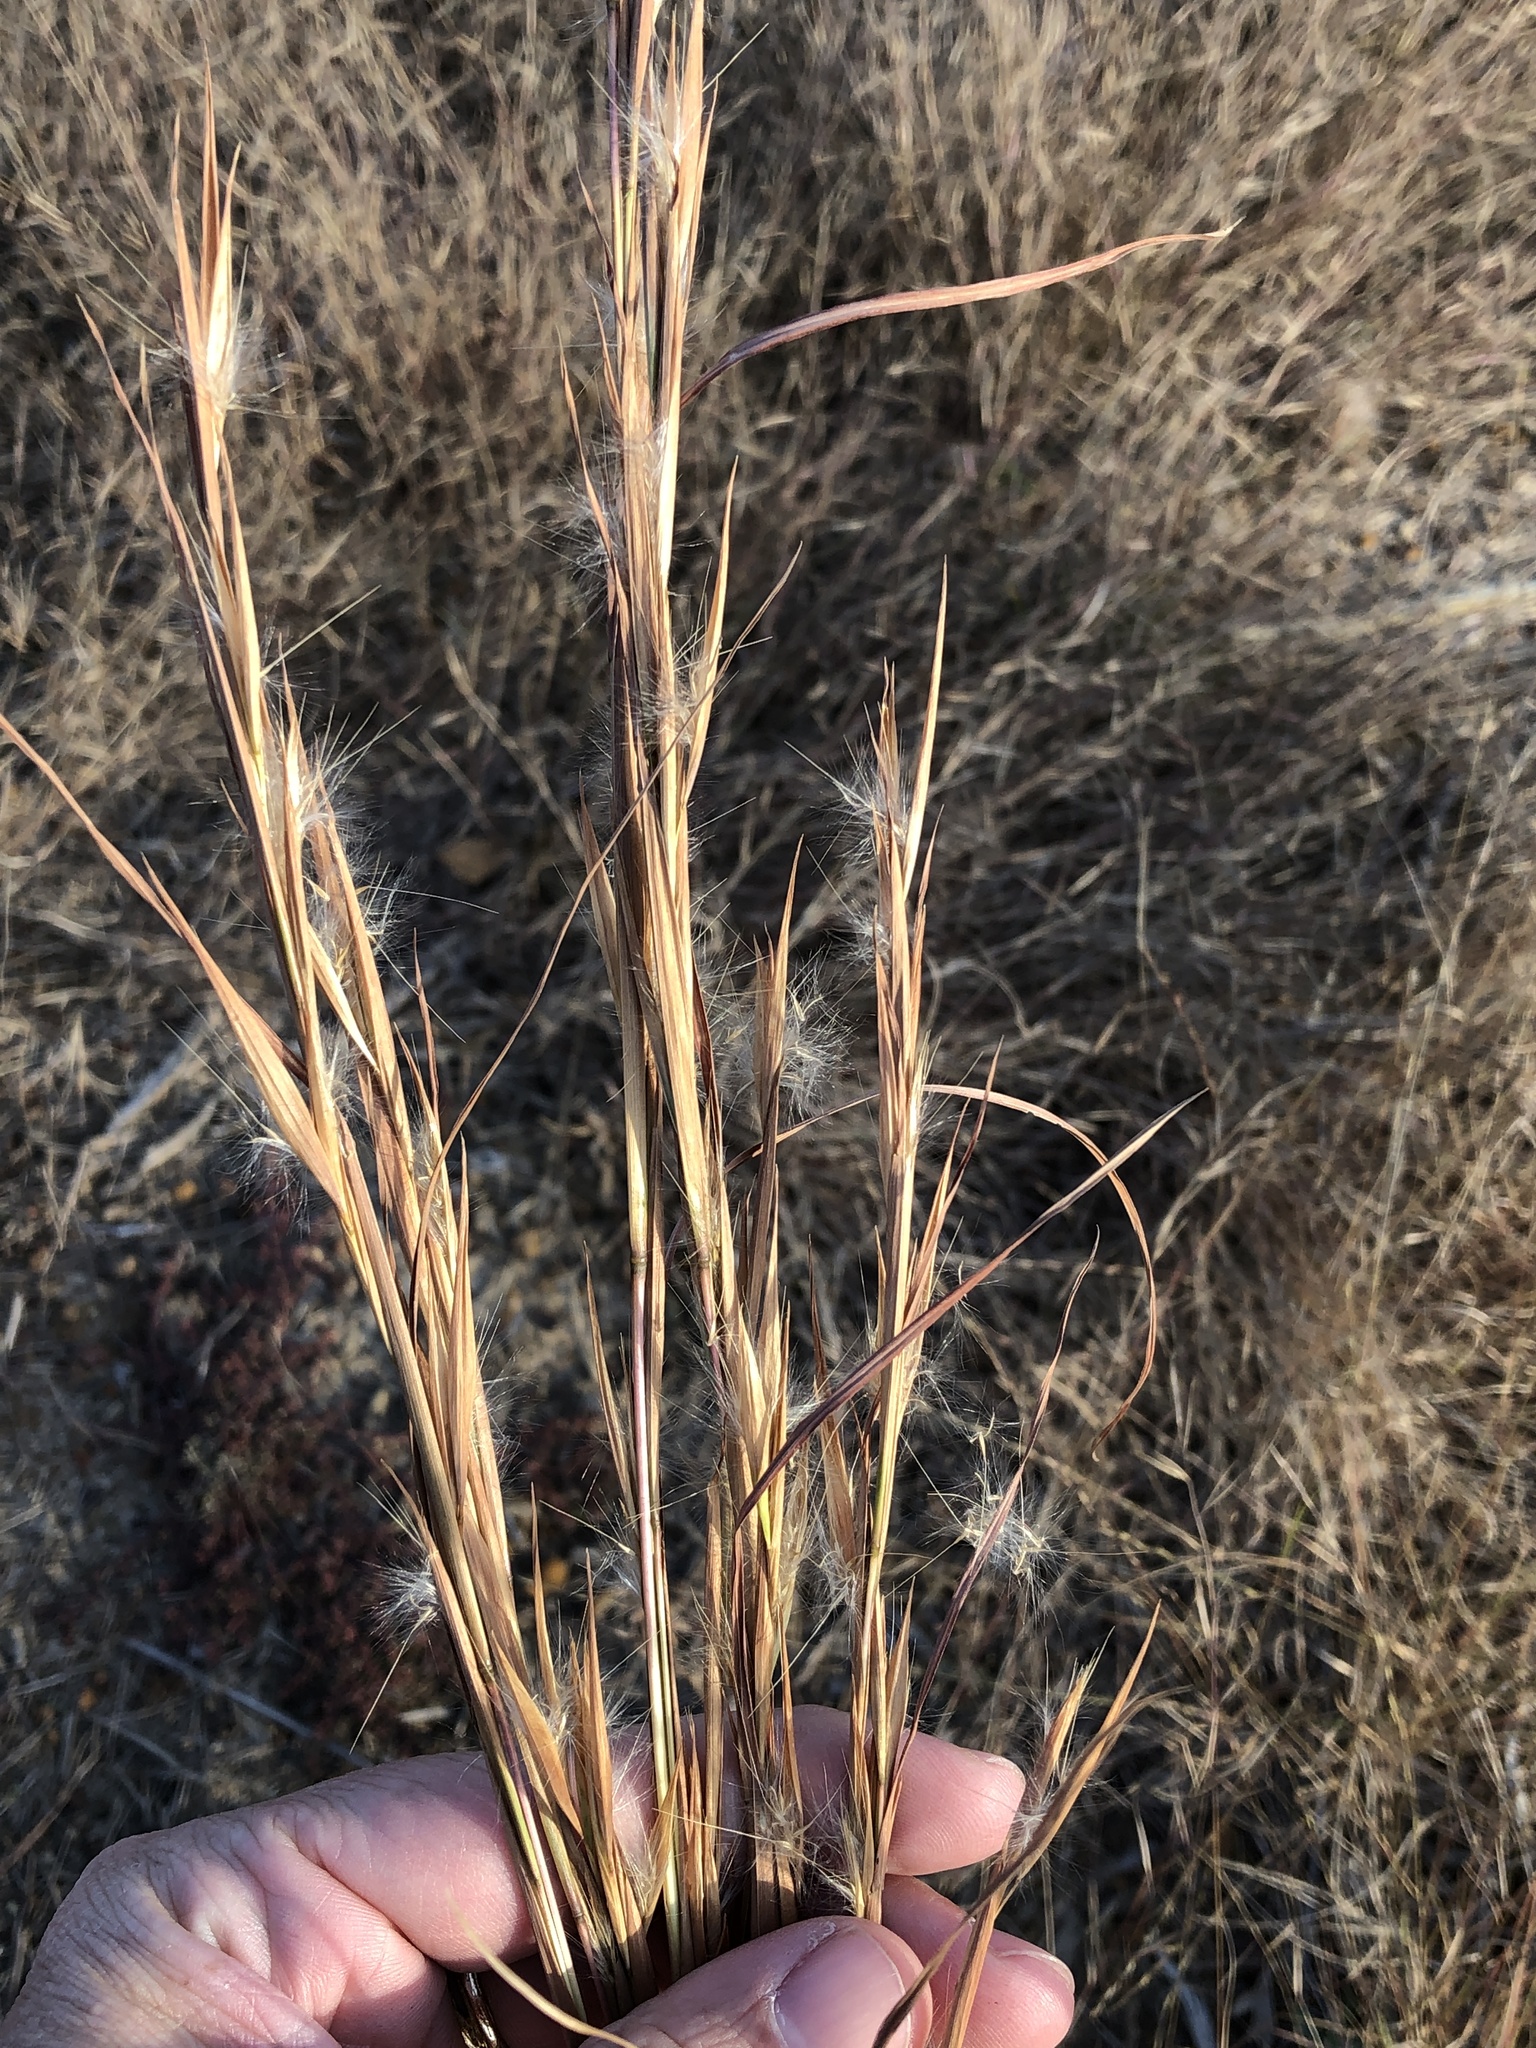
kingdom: Plantae
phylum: Tracheophyta
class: Liliopsida
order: Poales
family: Poaceae
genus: Andropogon
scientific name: Andropogon virginicus
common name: Broomsedge bluestem
